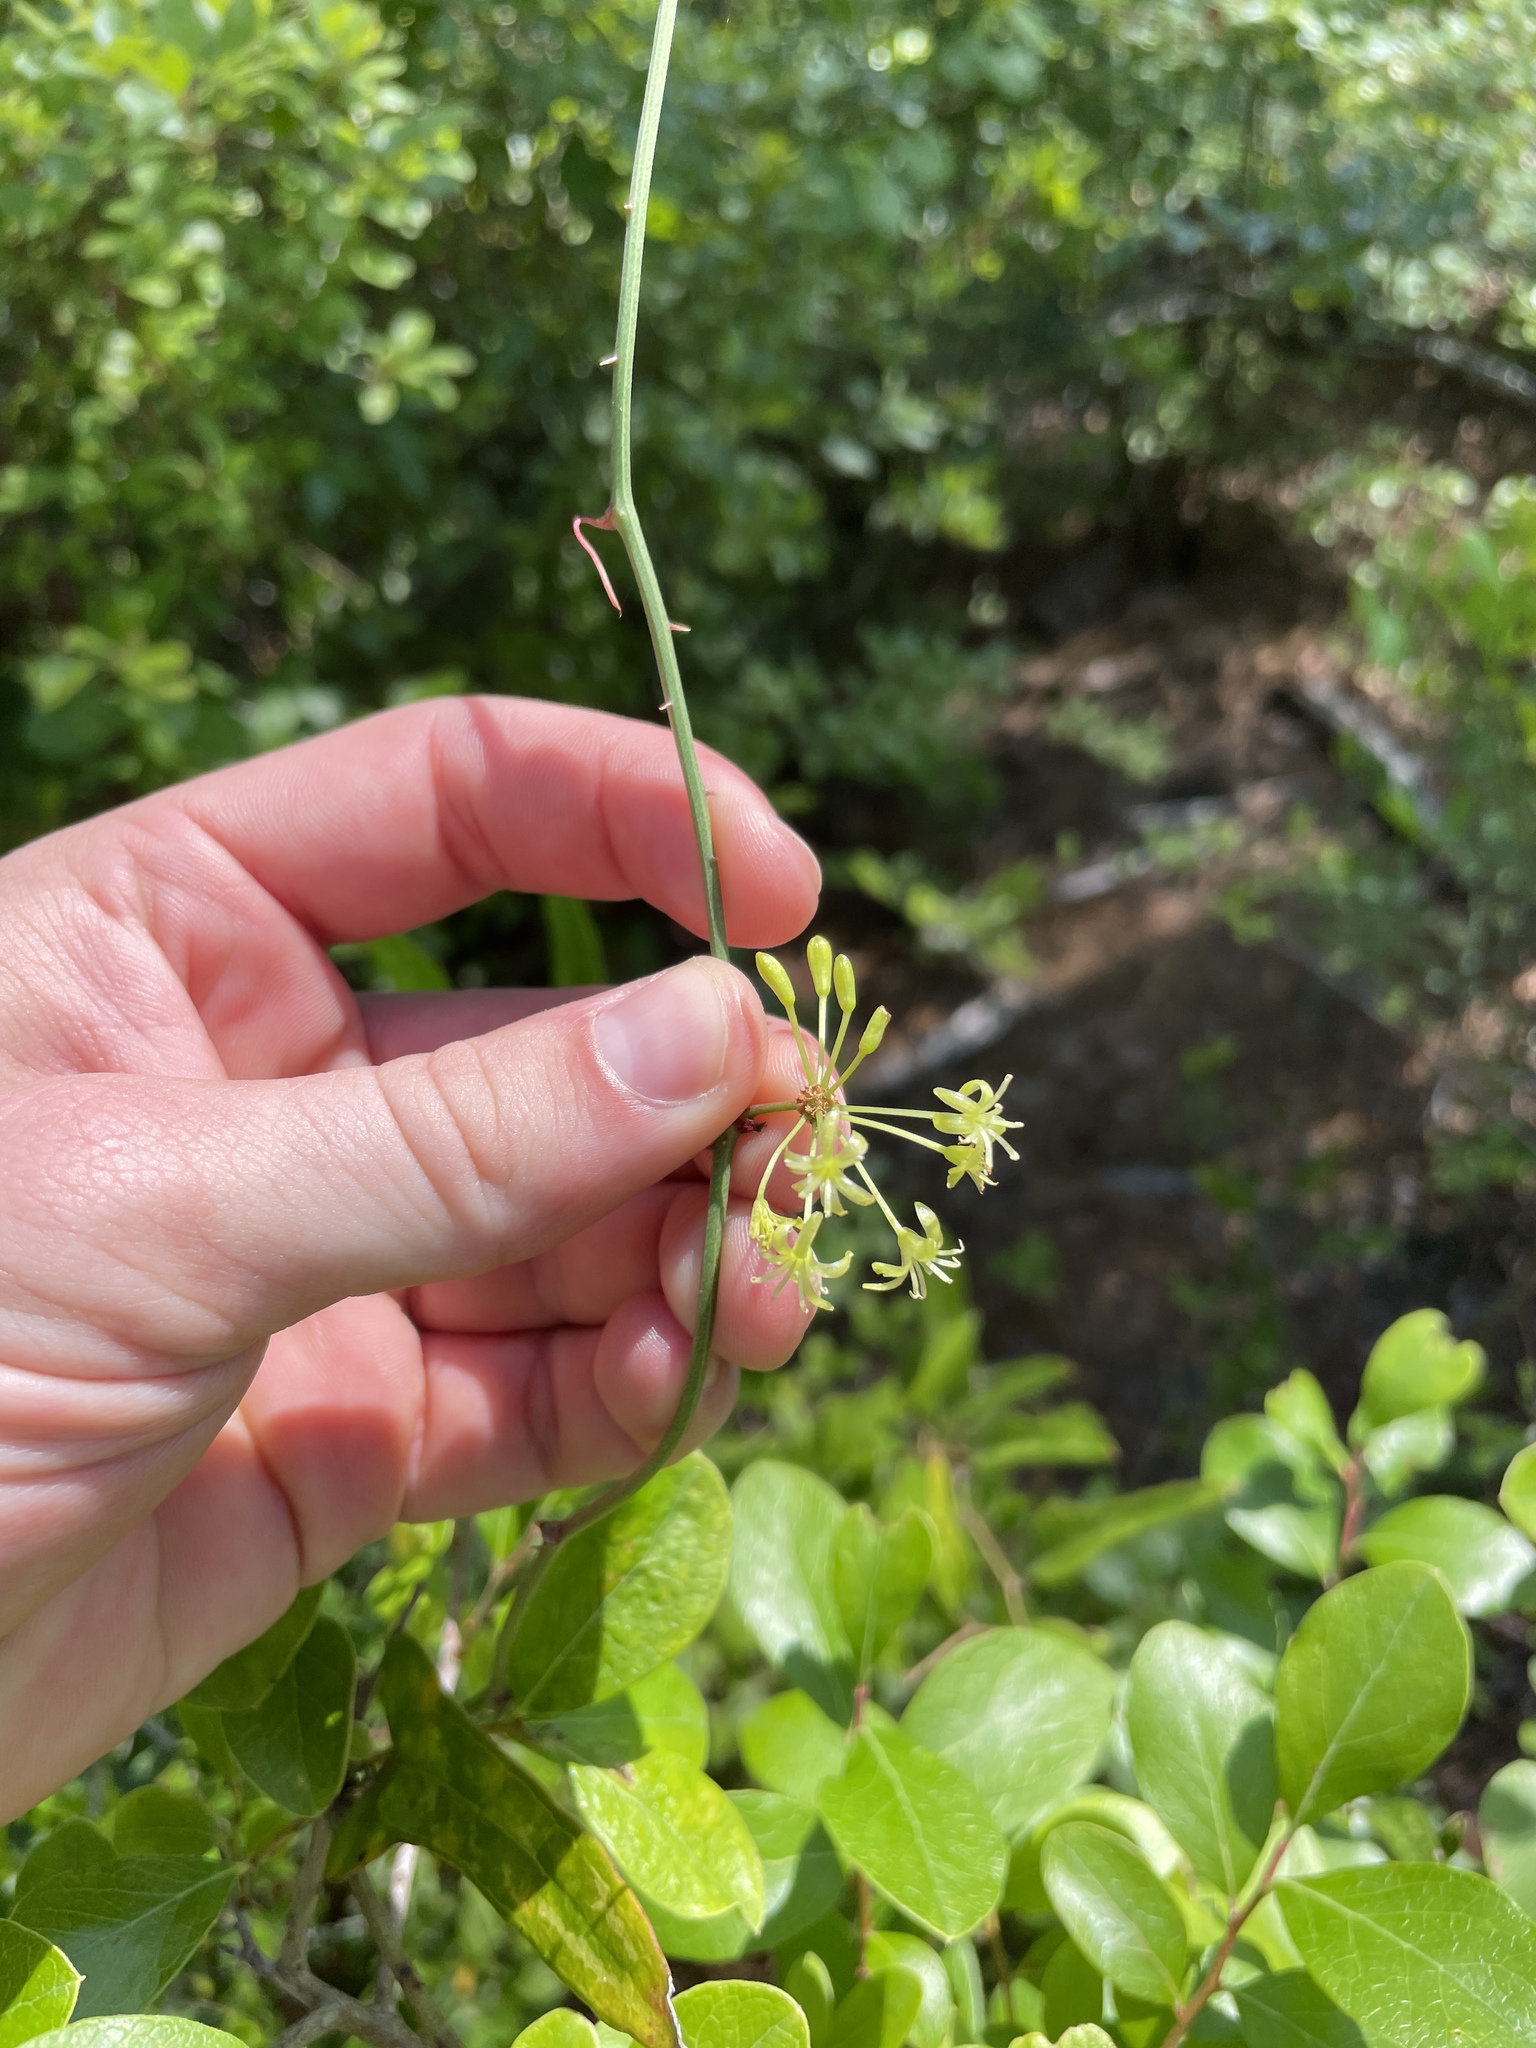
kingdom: Plantae
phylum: Tracheophyta
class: Liliopsida
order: Liliales
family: Smilacaceae
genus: Smilax
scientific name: Smilax glauca
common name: Cat greenbrier
